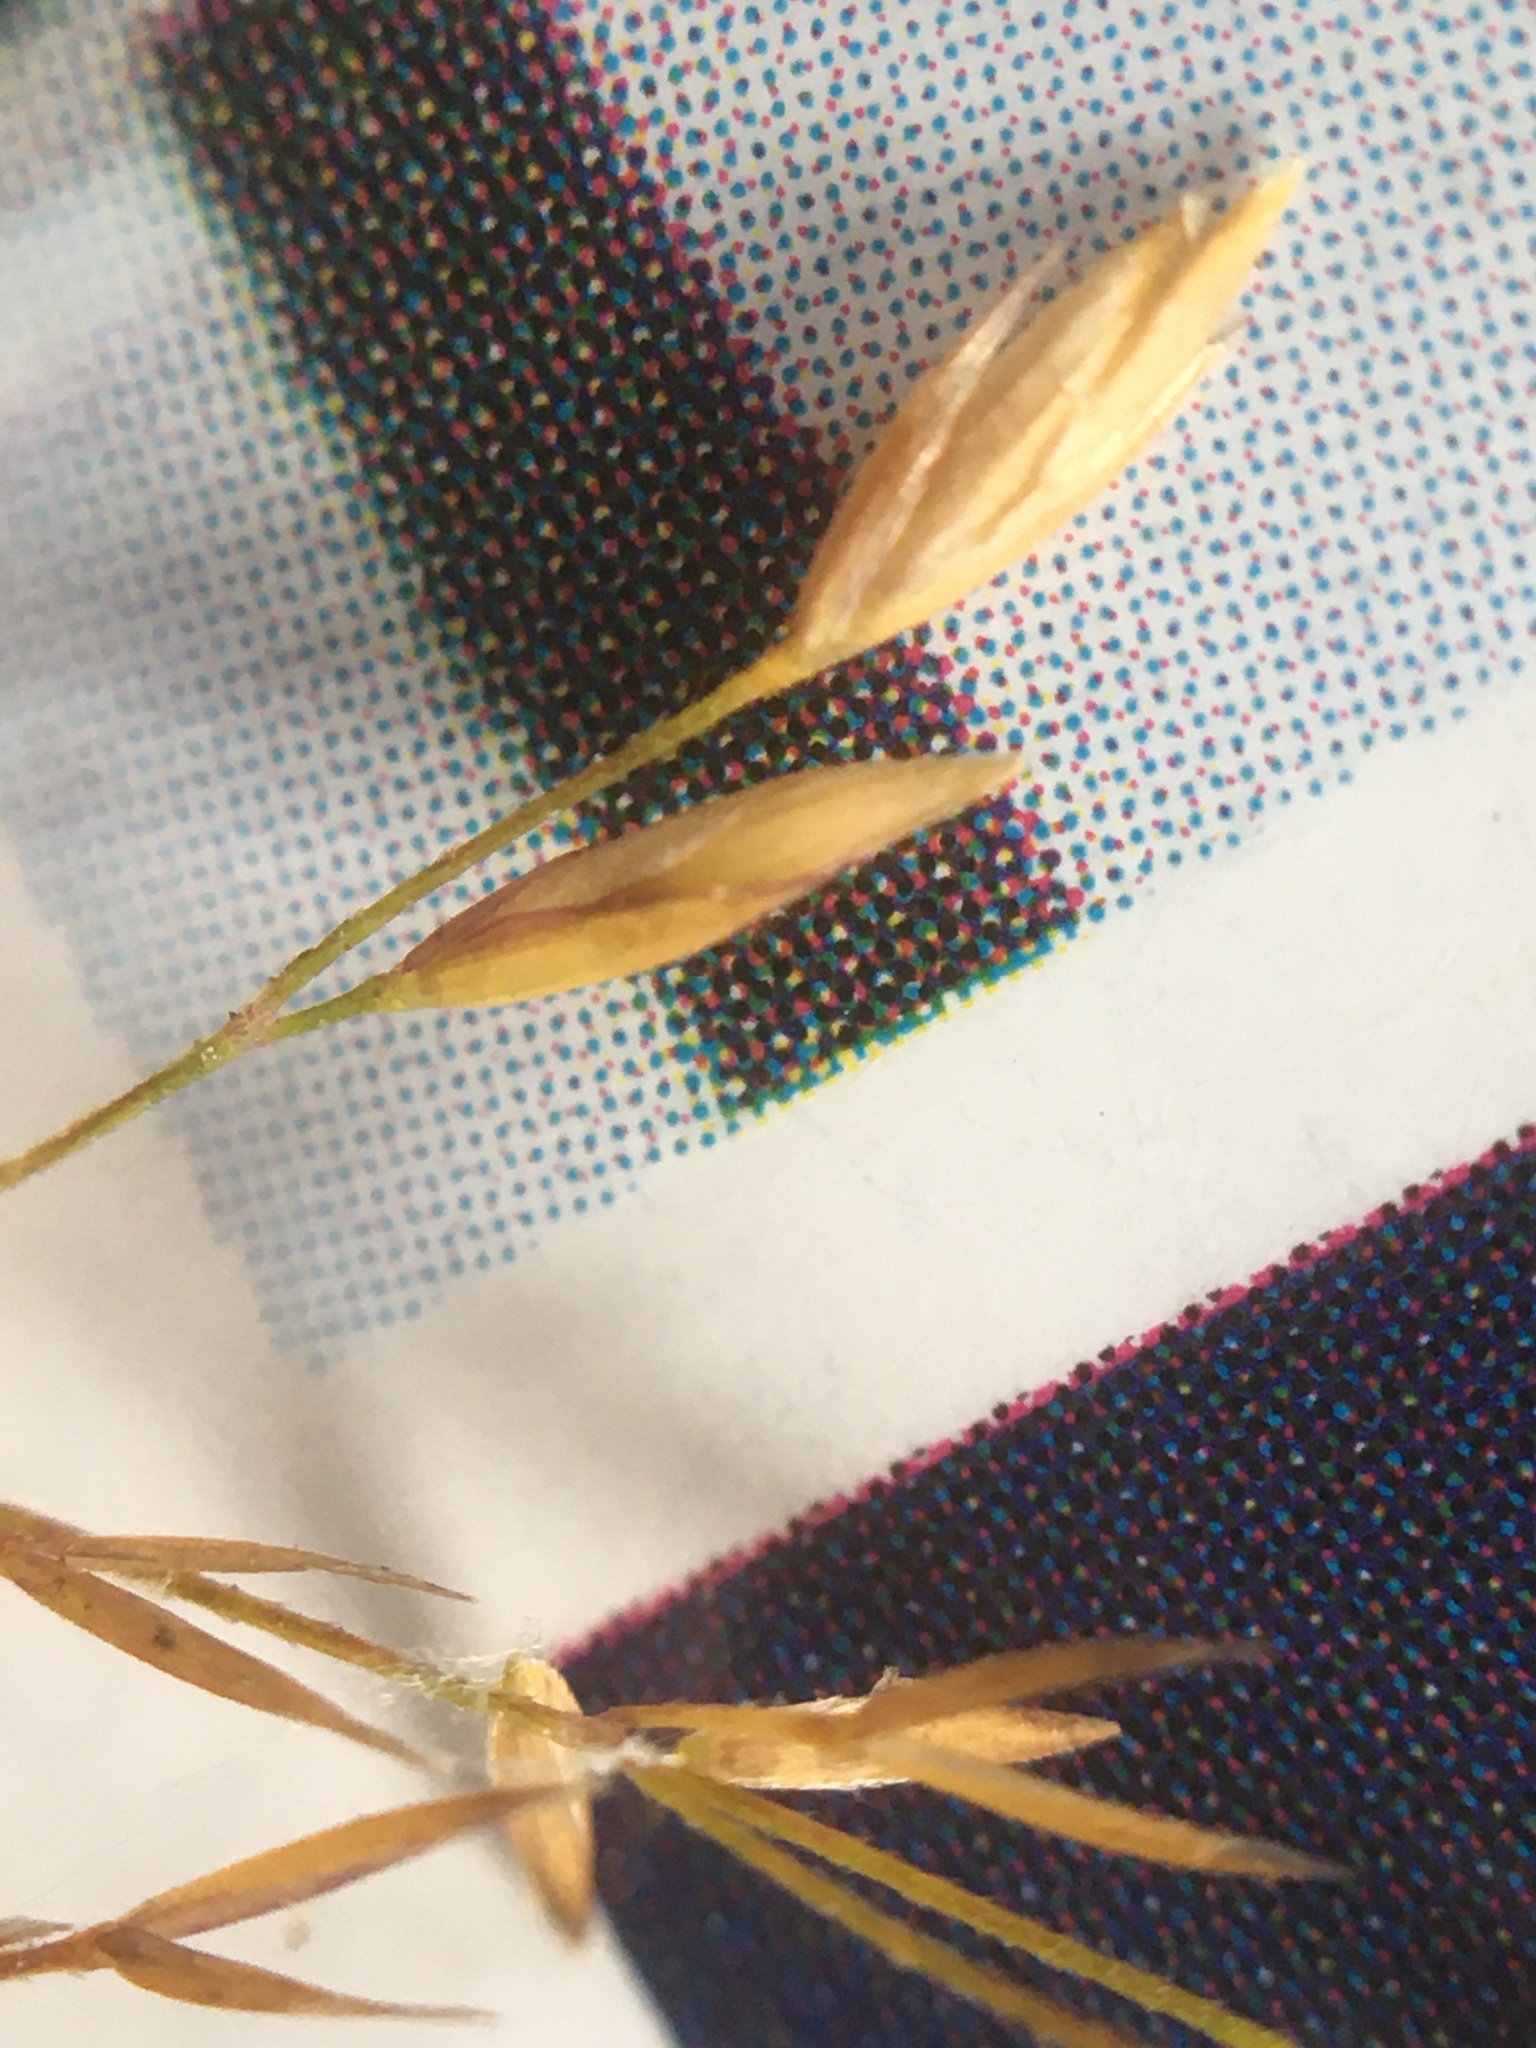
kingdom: Plantae
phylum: Tracheophyta
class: Liliopsida
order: Poales
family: Poaceae
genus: Poa
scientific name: Poa palustris
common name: Swamp meadow-grass
